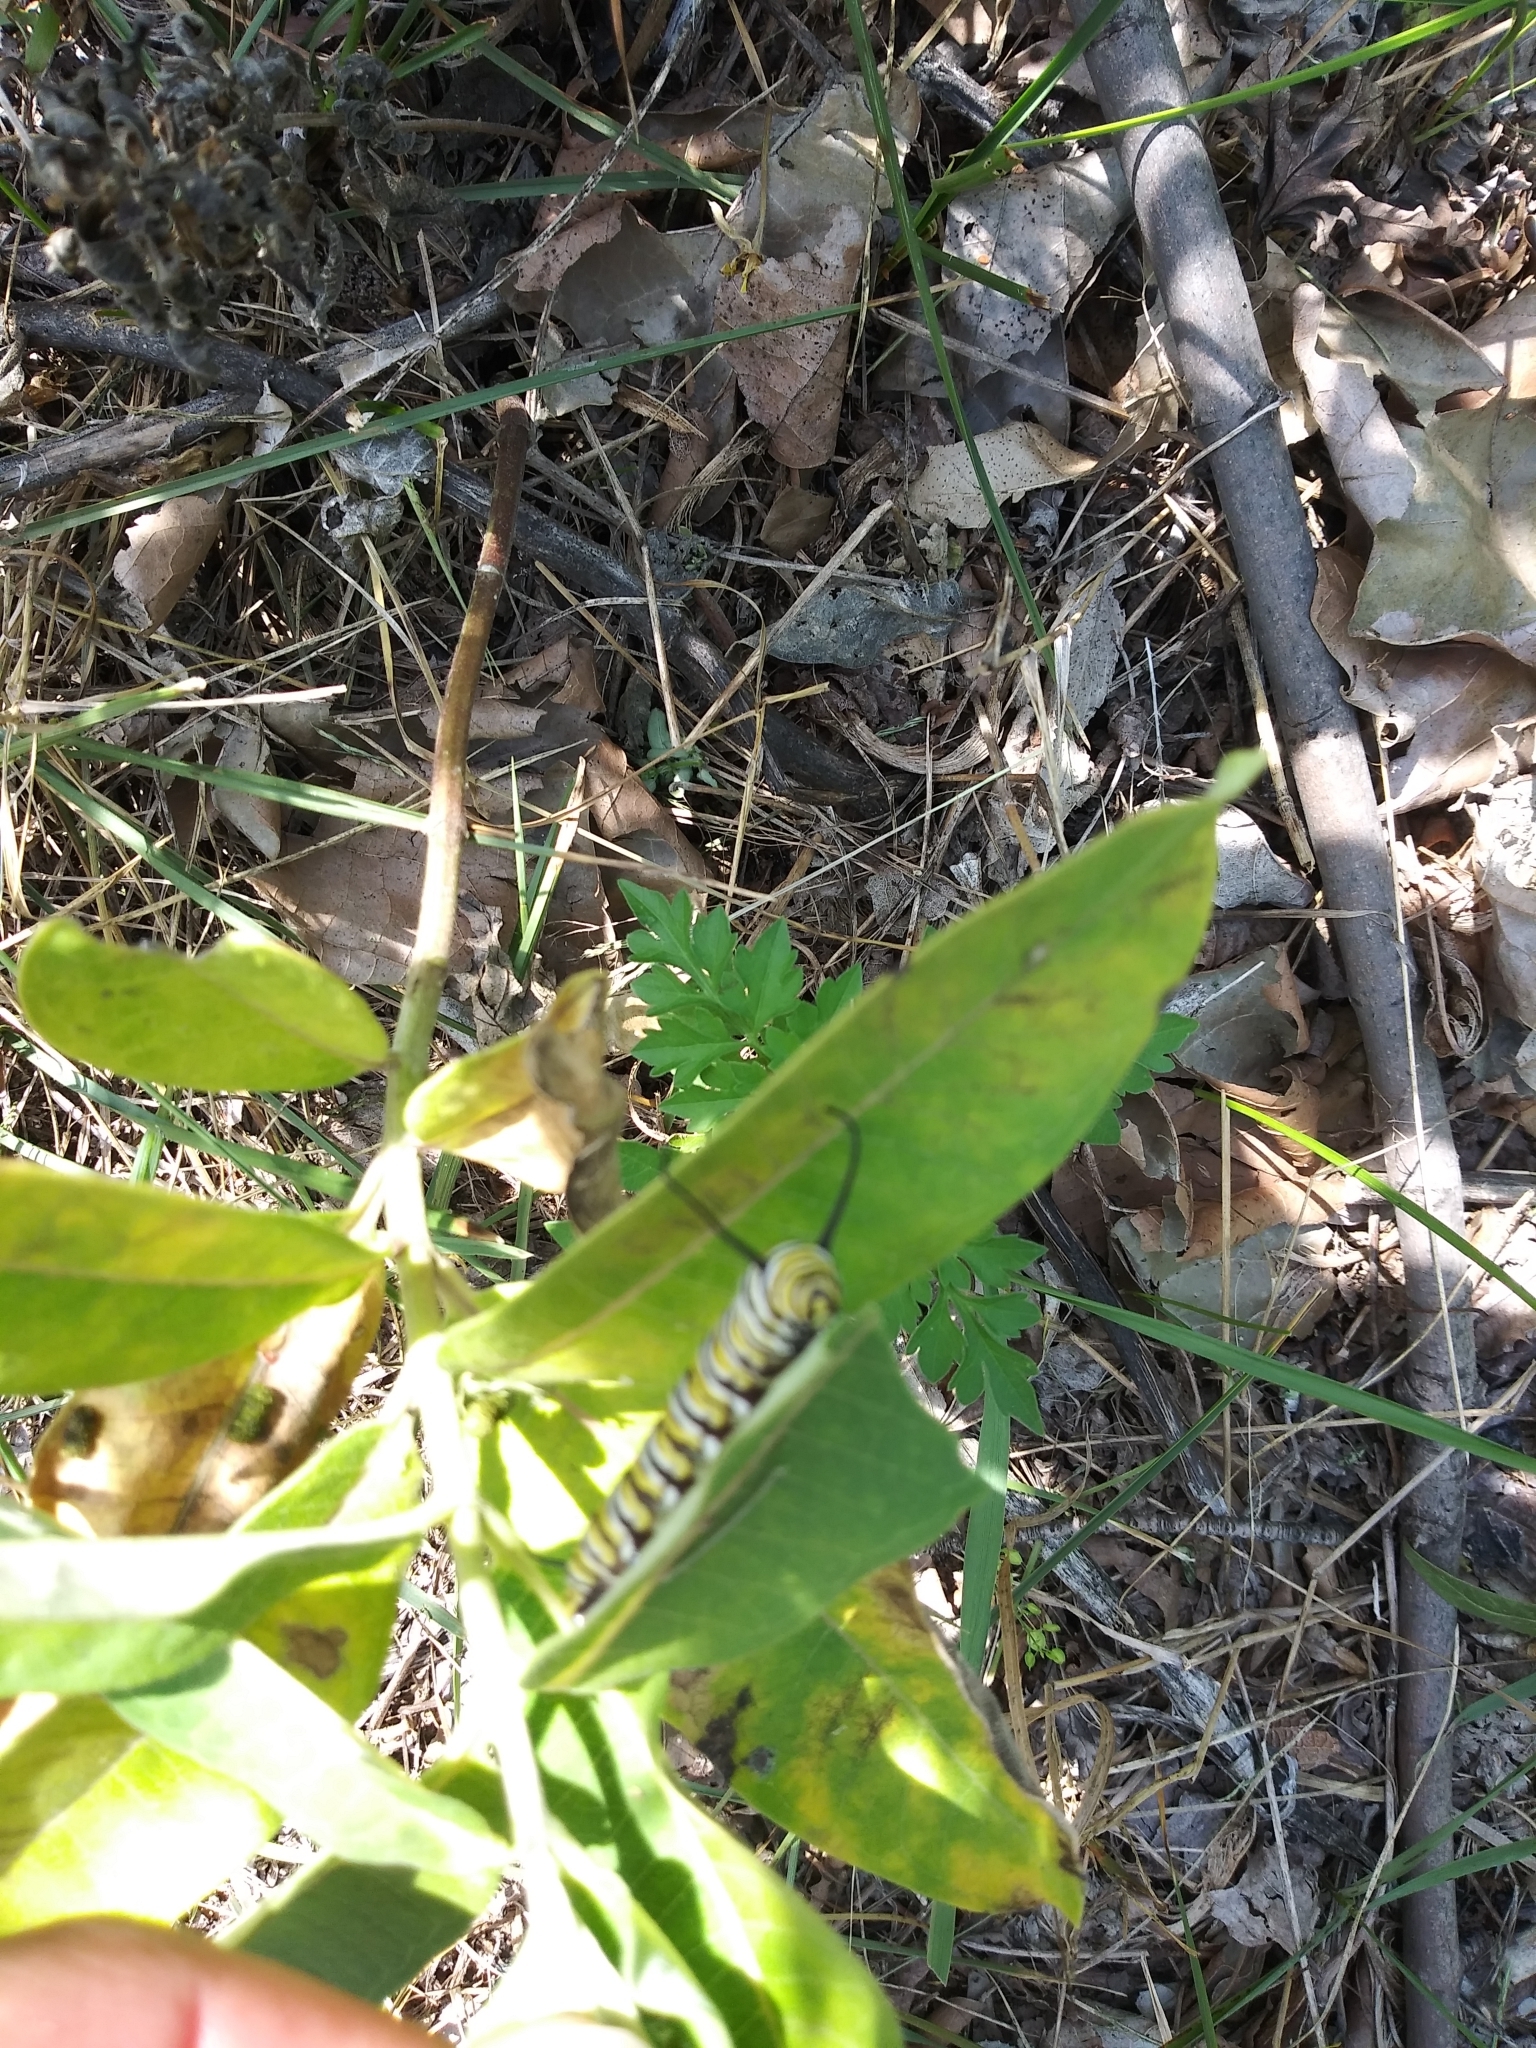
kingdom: Animalia
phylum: Arthropoda
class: Insecta
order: Lepidoptera
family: Nymphalidae
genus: Danaus
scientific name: Danaus plexippus
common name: Monarch
